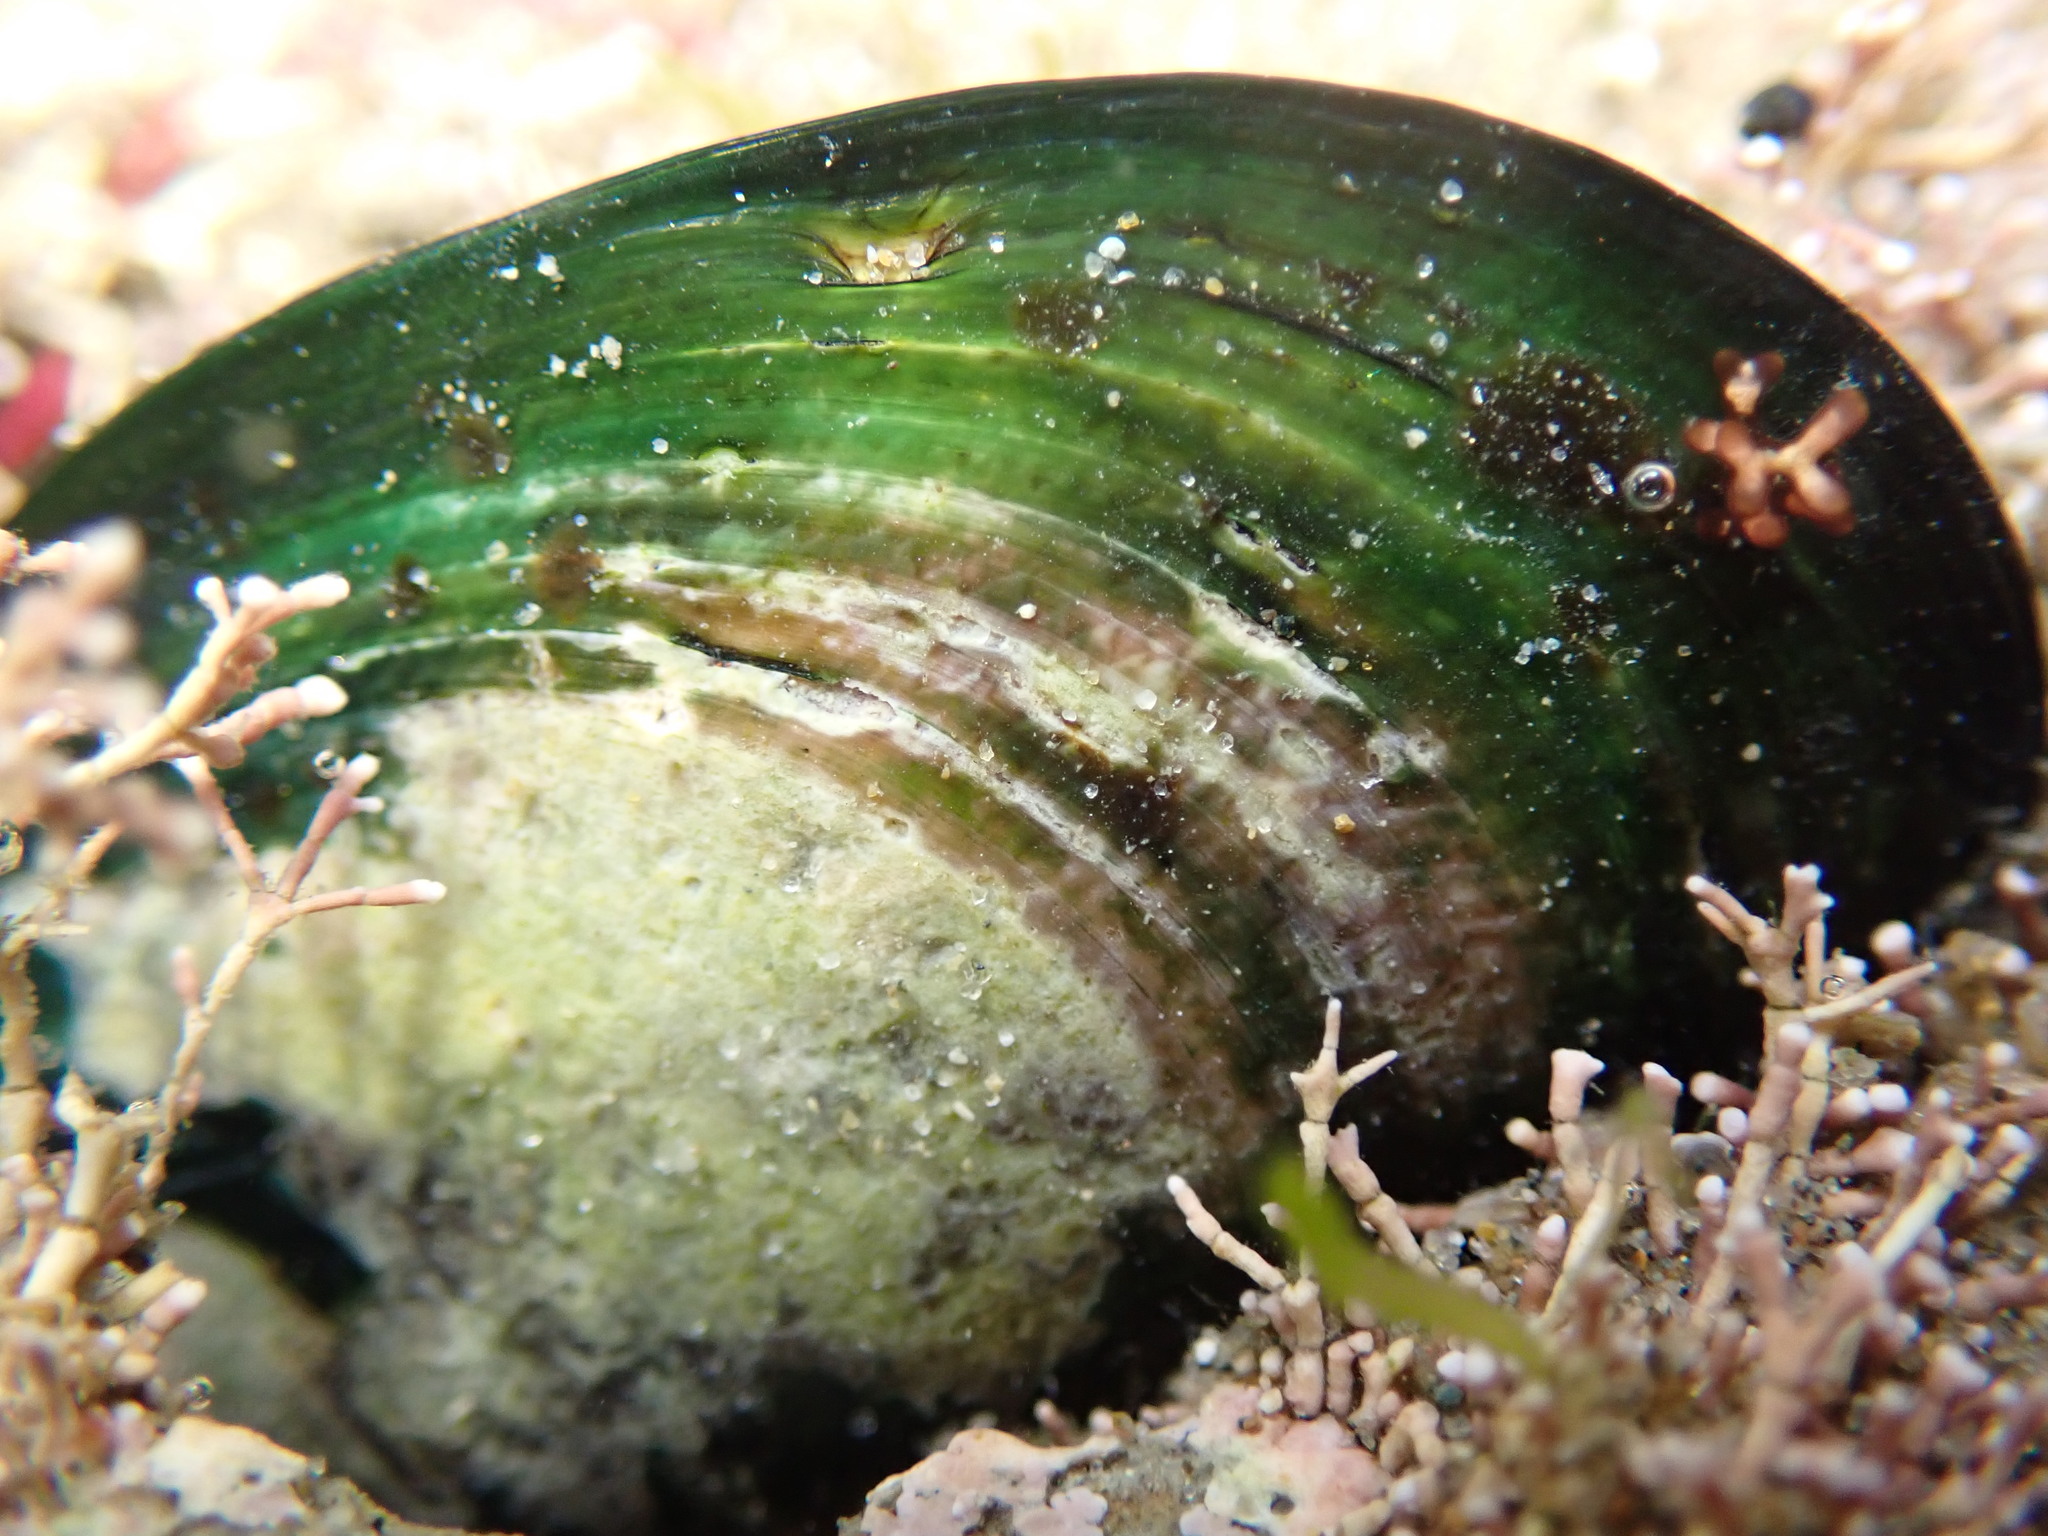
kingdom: Animalia
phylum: Mollusca
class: Bivalvia
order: Mytilida
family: Mytilidae
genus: Perna
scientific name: Perna canaliculus
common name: New zealand greenshelltm
